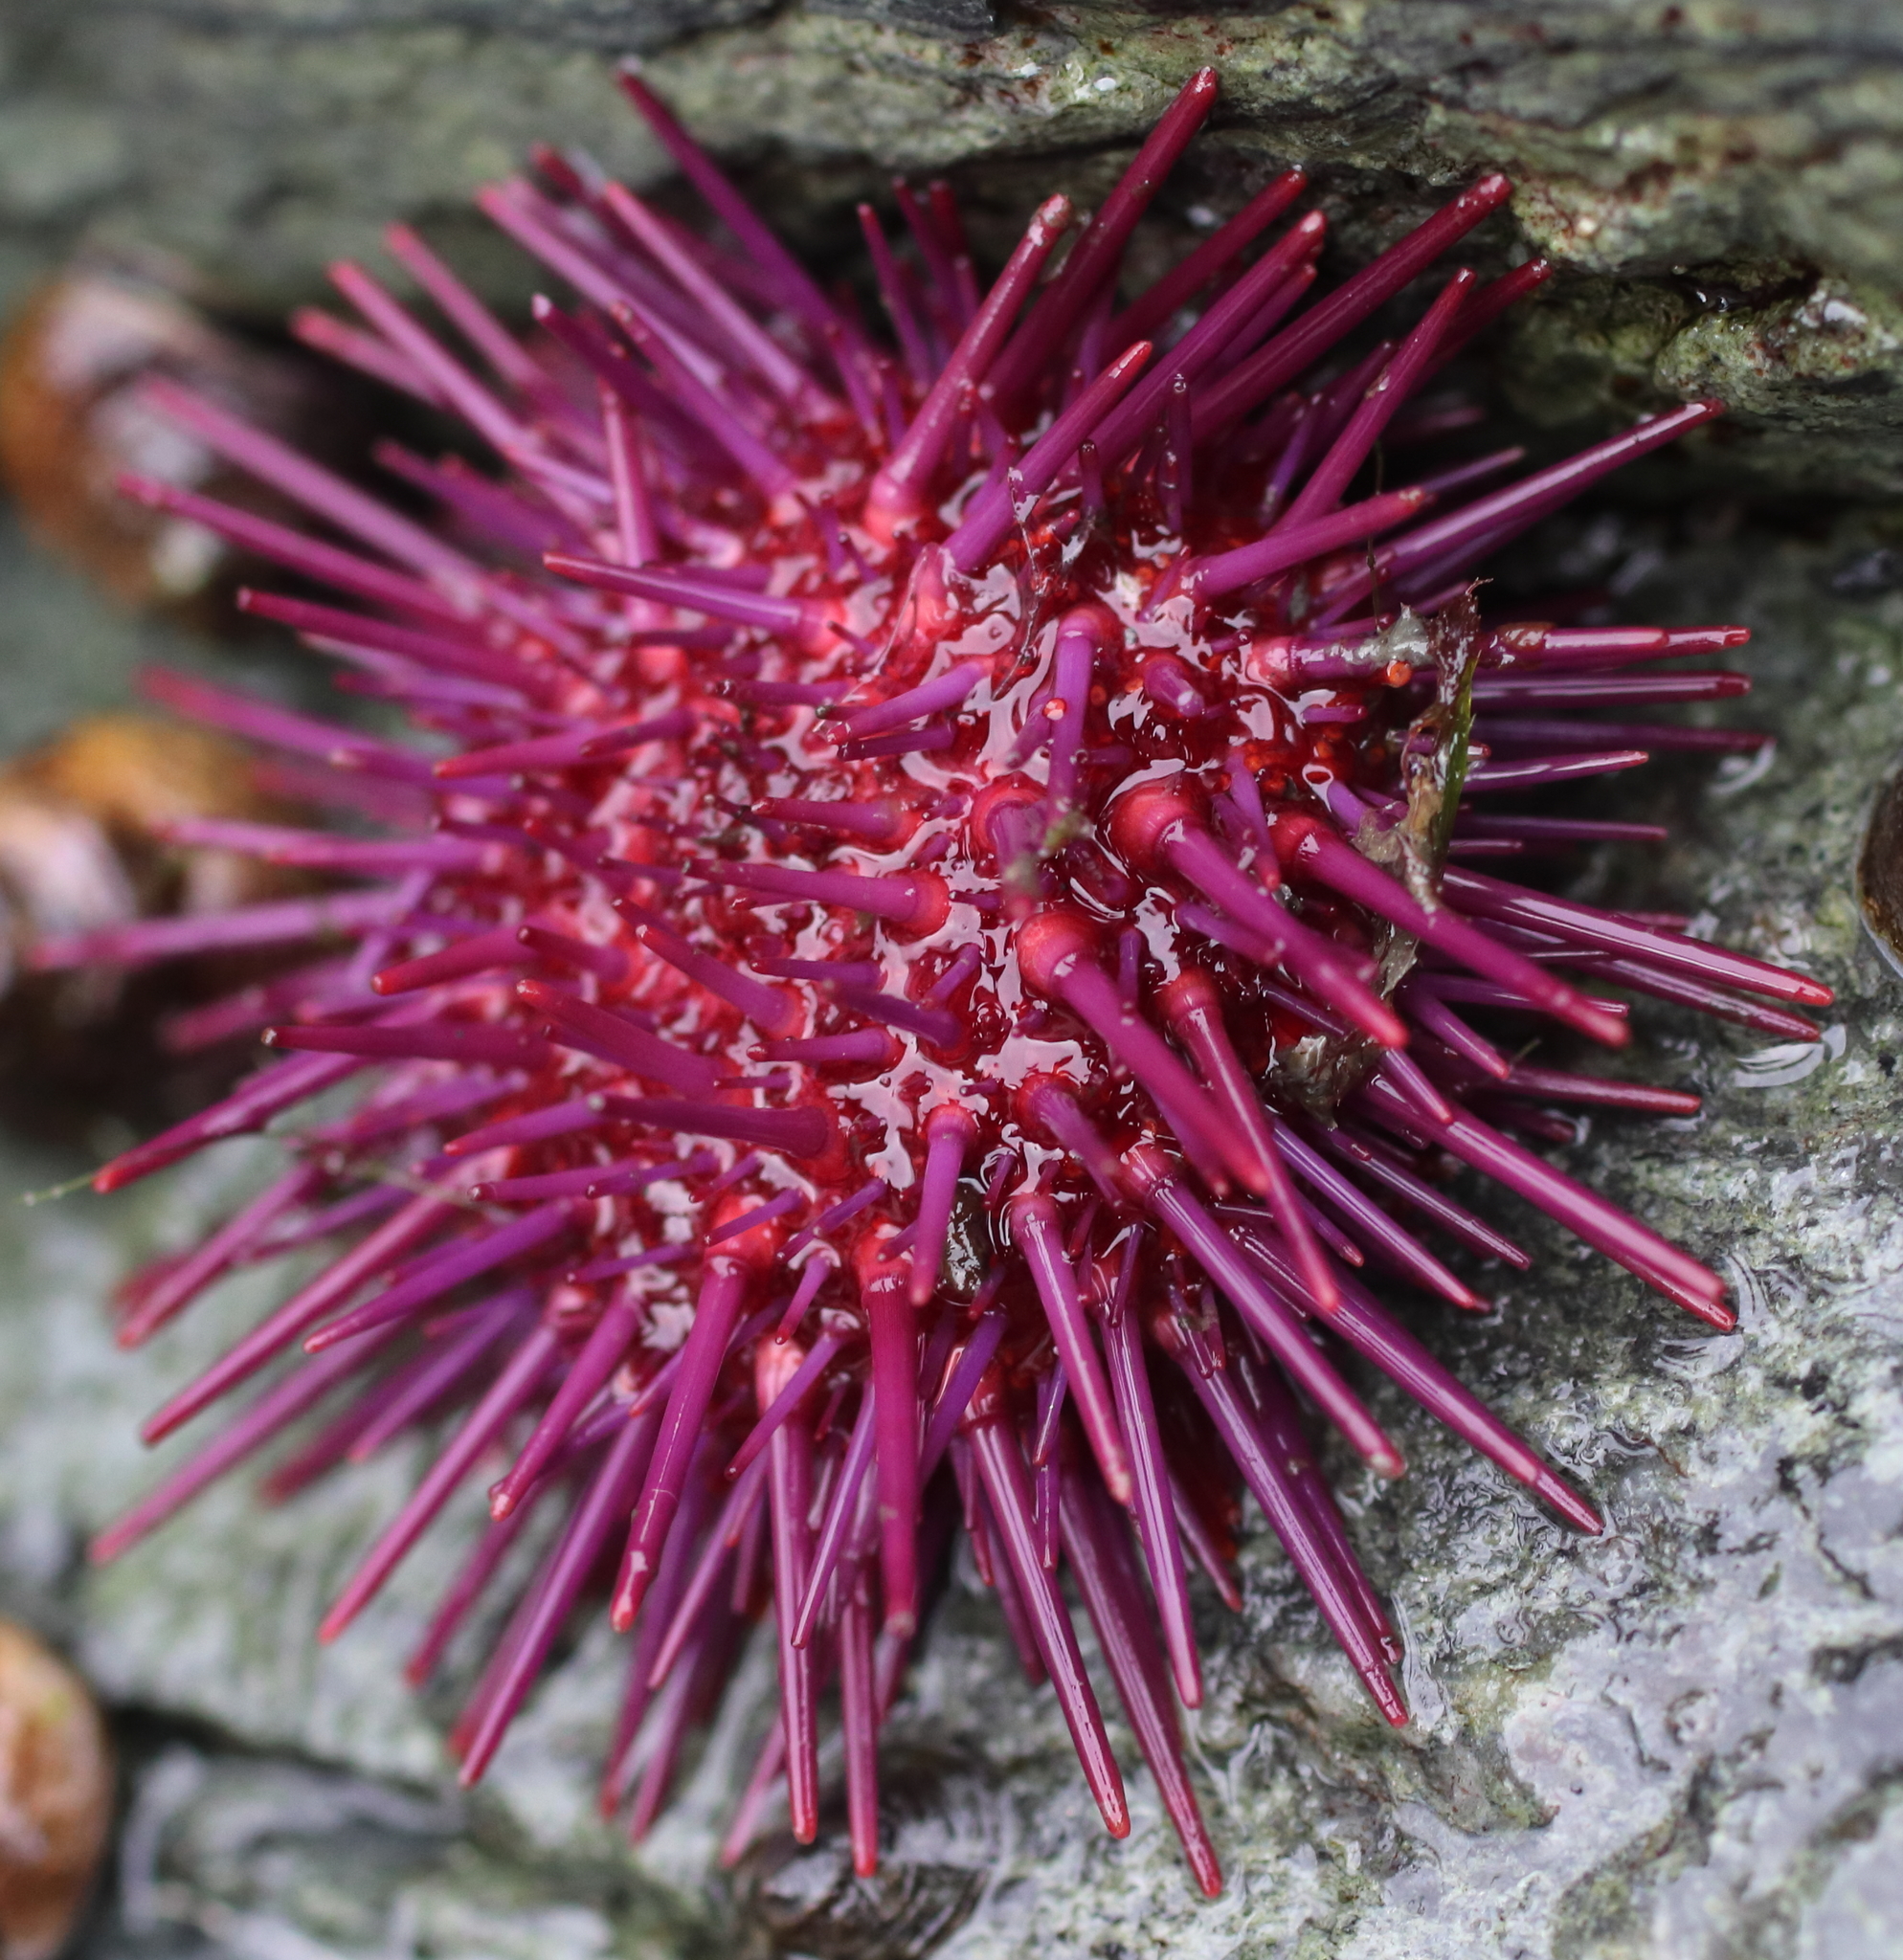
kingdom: Animalia
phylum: Echinodermata
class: Echinoidea
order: Camarodonta
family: Strongylocentrotidae
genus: Mesocentrotus
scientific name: Mesocentrotus franciscanus
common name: Red sea urchin
